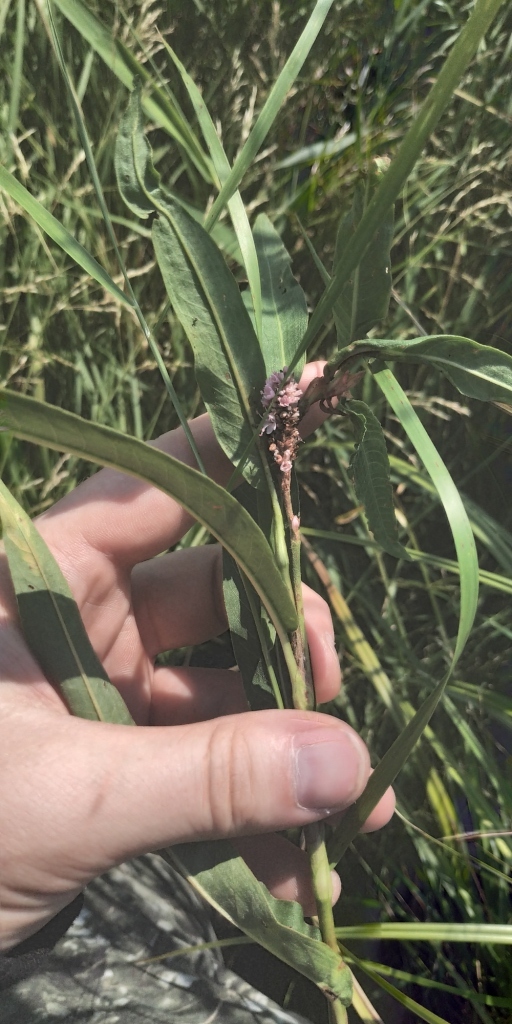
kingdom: Plantae
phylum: Tracheophyta
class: Magnoliopsida
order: Caryophyllales
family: Polygonaceae
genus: Persicaria
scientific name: Persicaria amphibia
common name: Amphibious bistort
